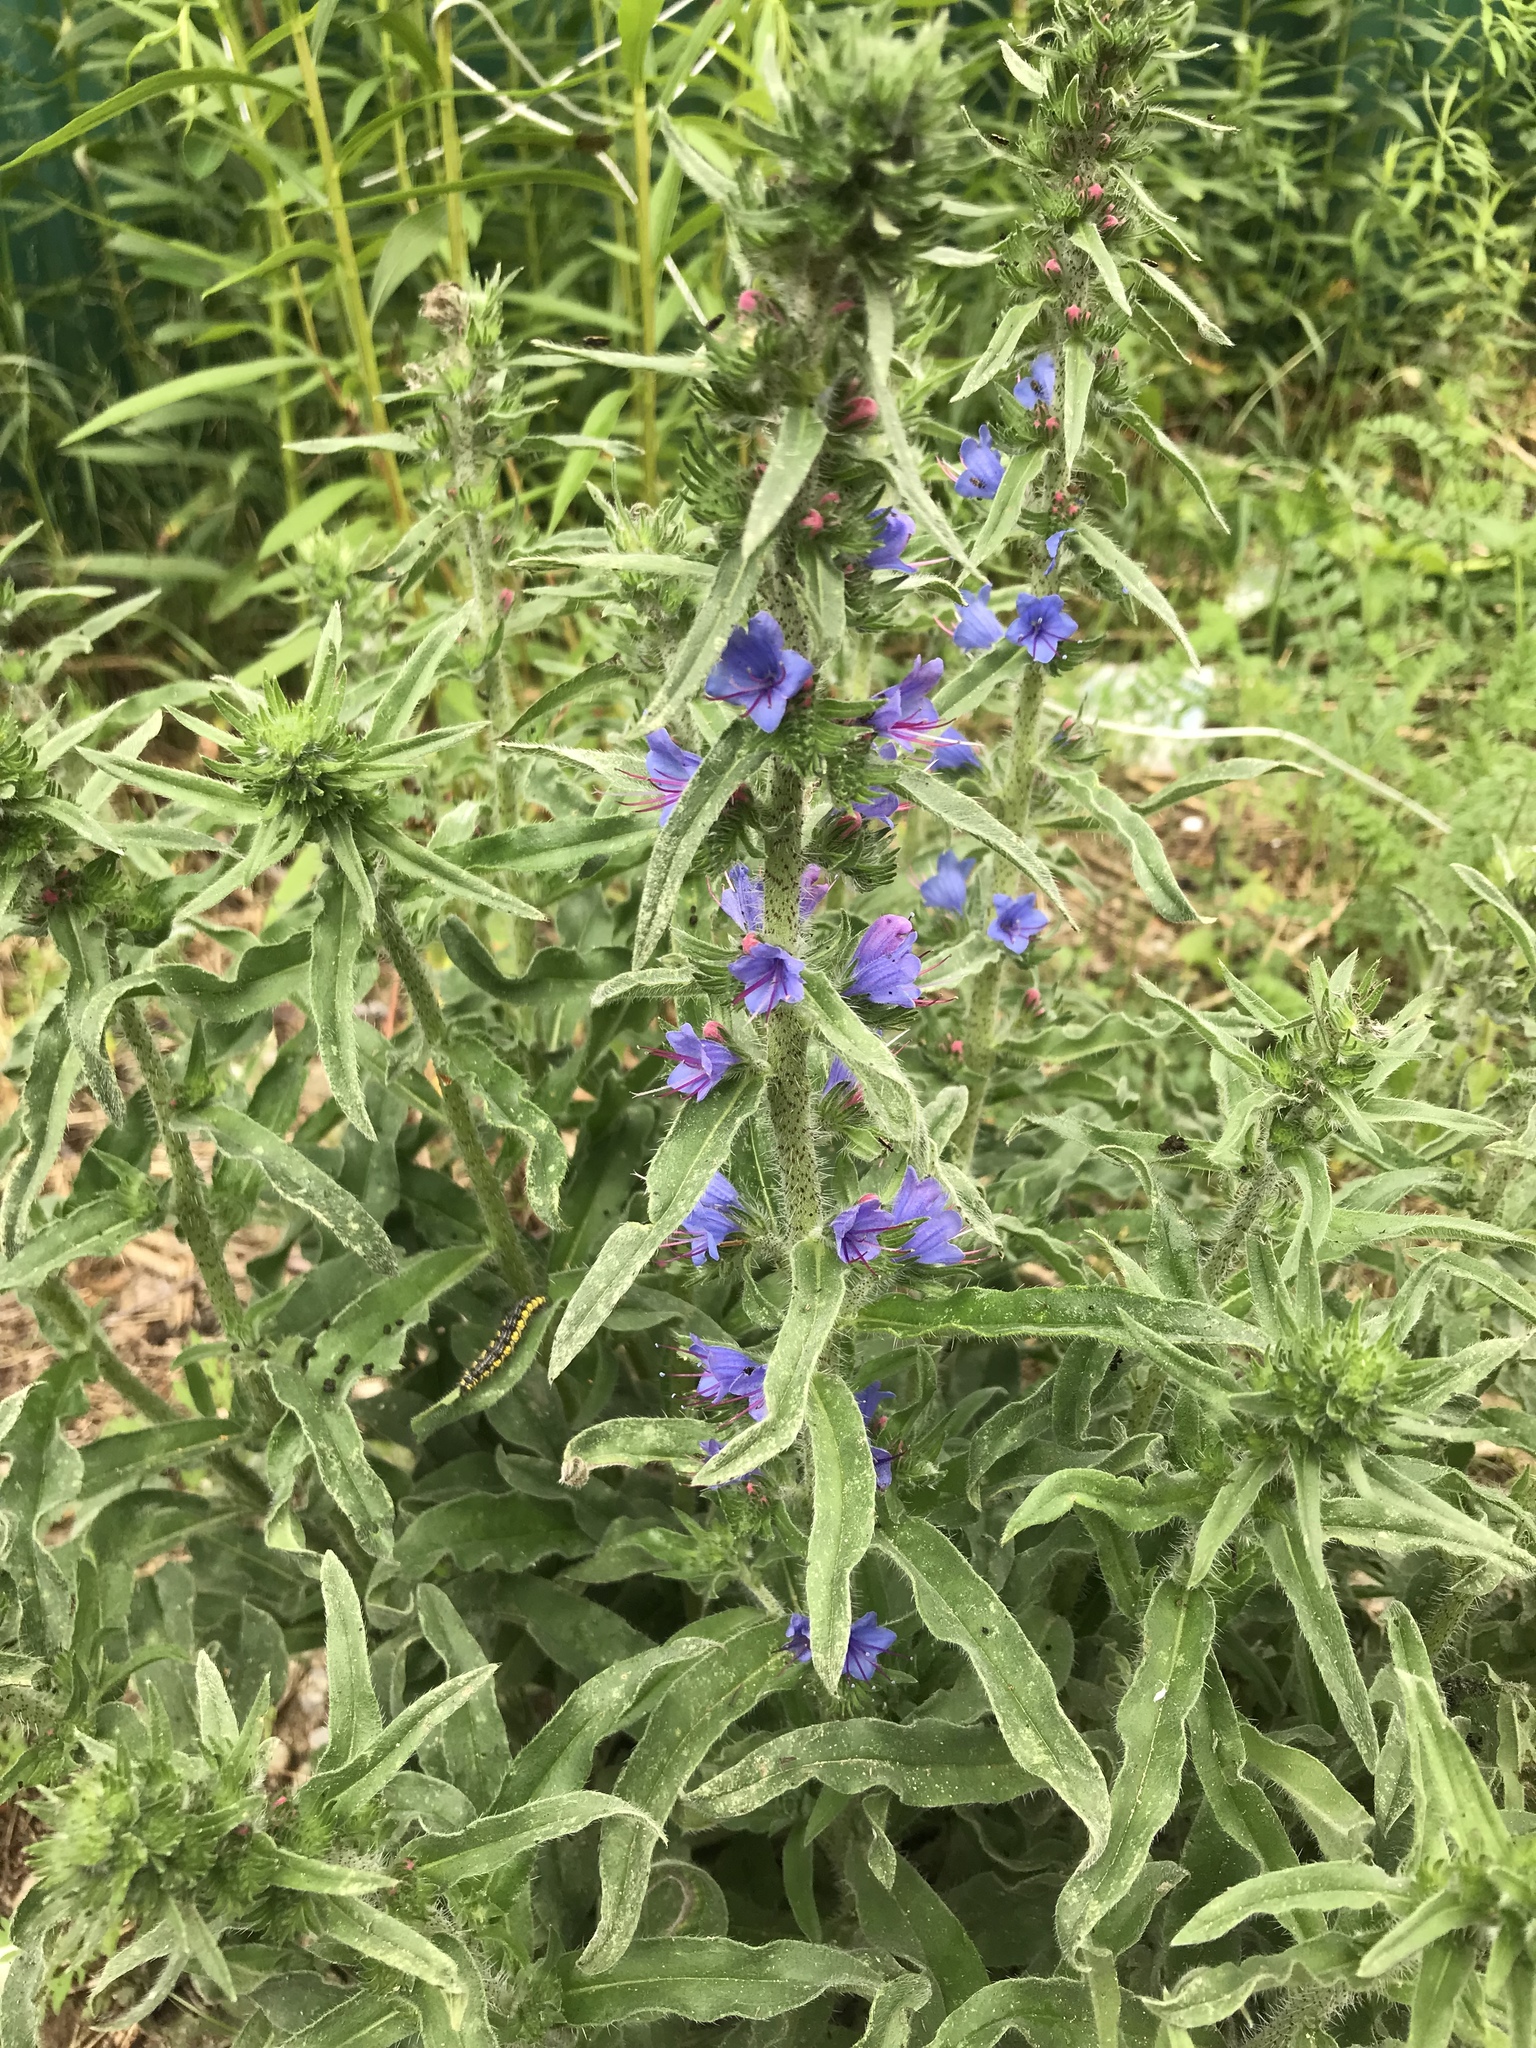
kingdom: Plantae
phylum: Tracheophyta
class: Magnoliopsida
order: Boraginales
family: Boraginaceae
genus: Echium
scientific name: Echium vulgare
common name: Common viper's bugloss
